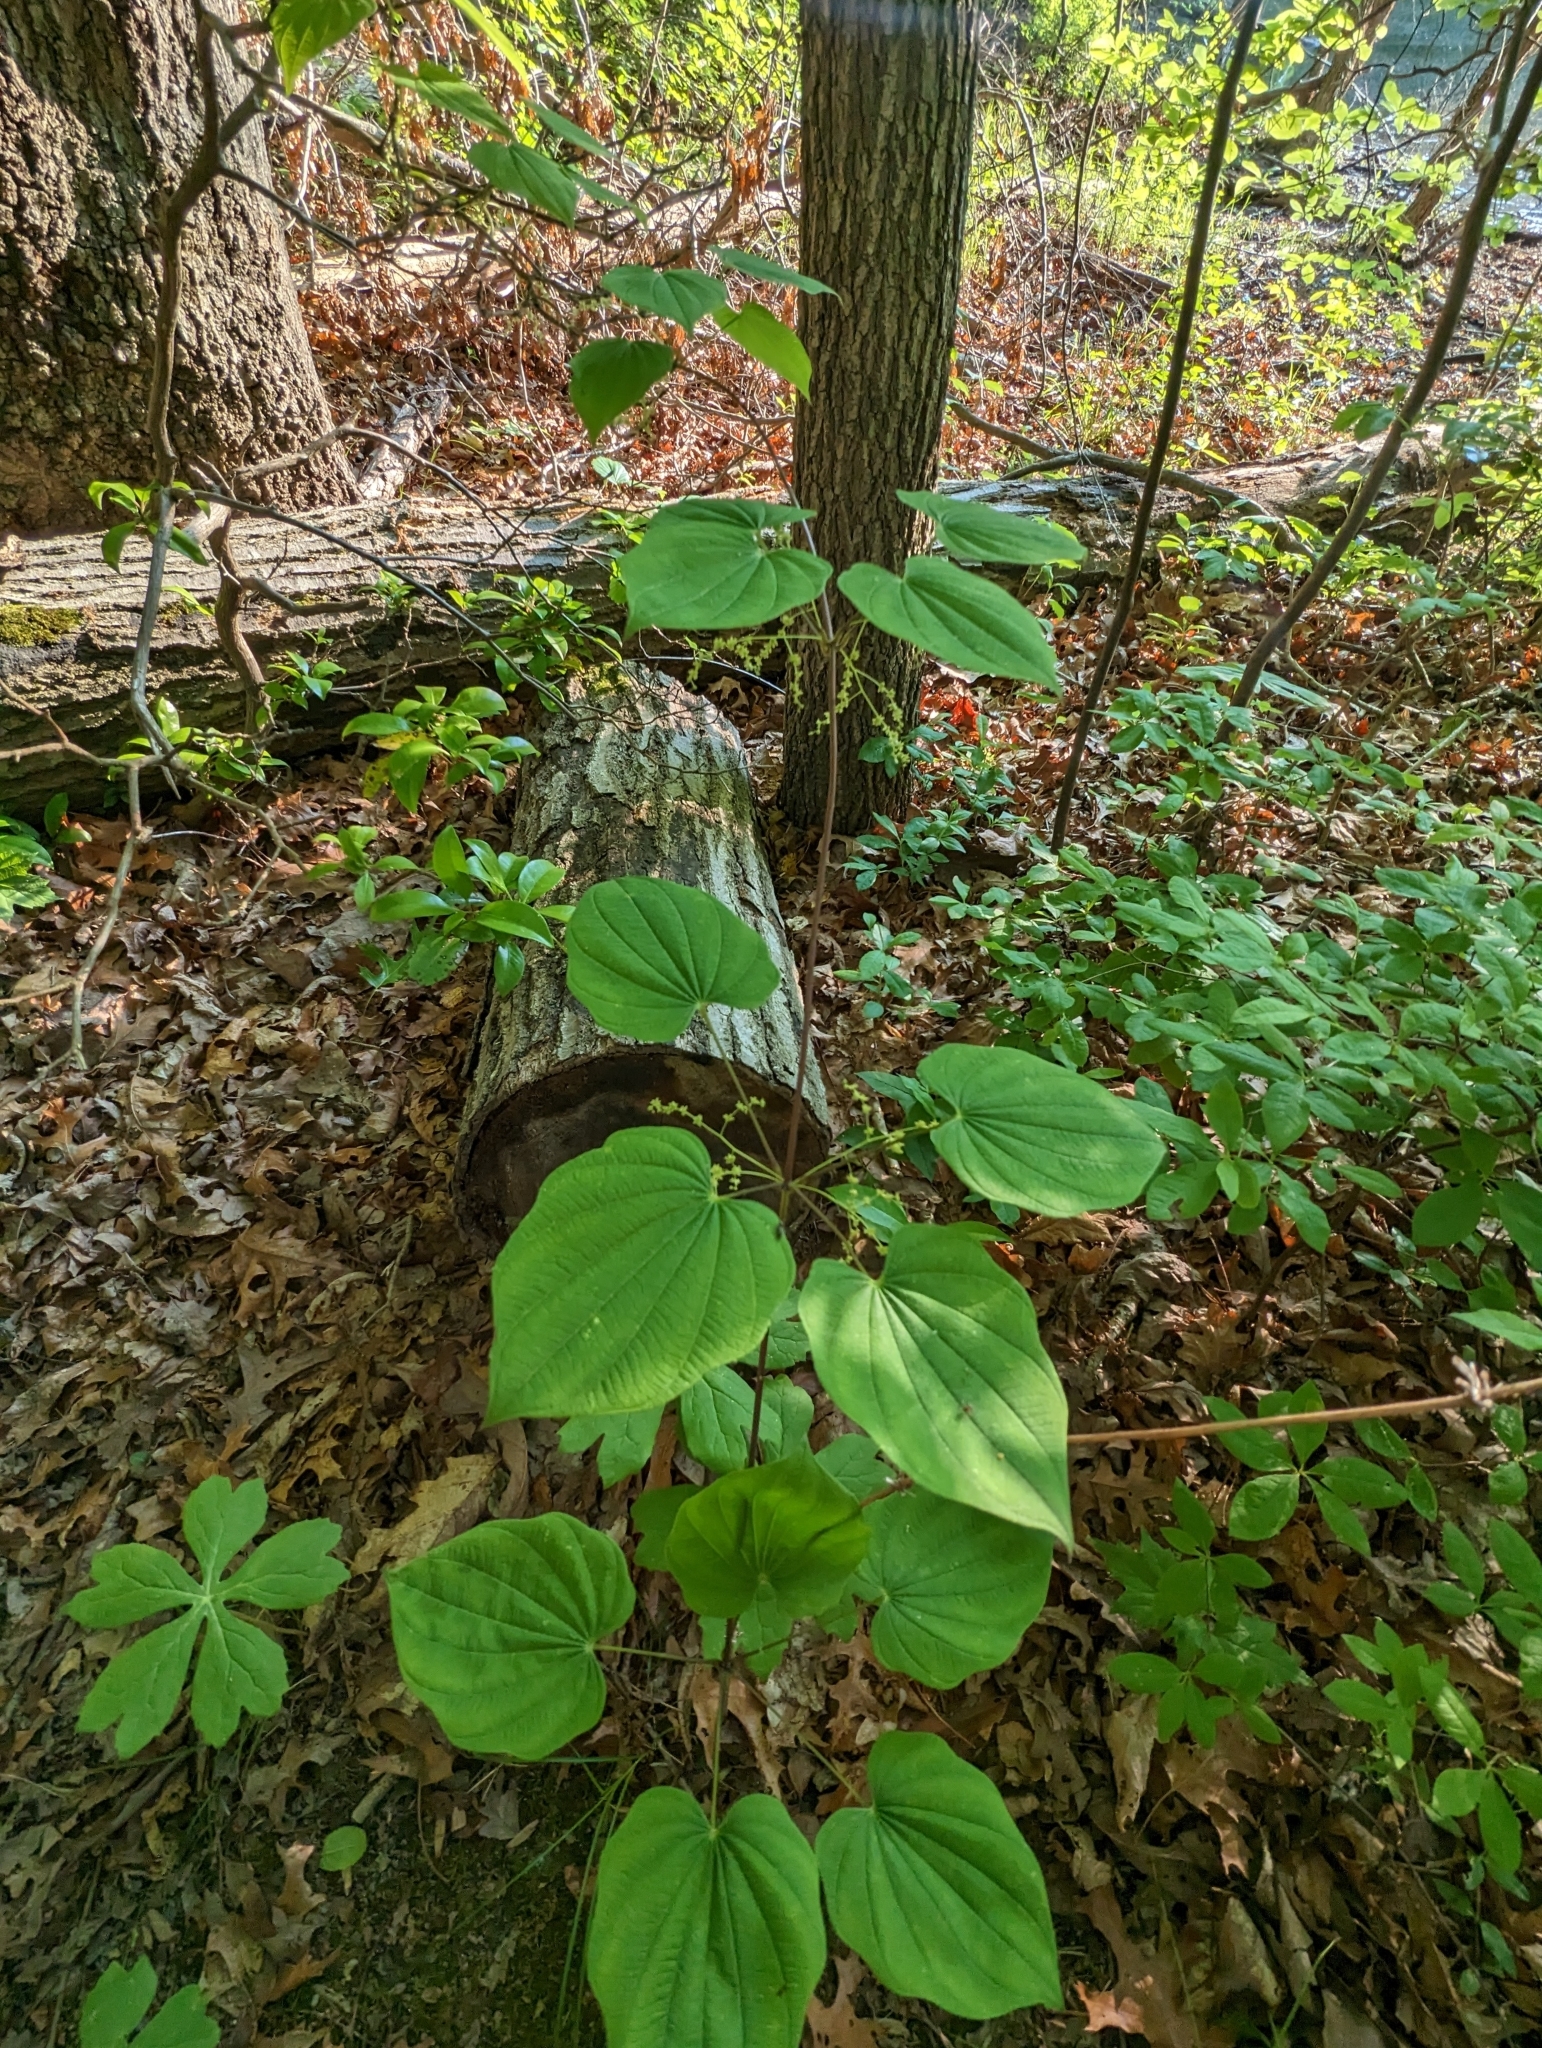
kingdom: Plantae
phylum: Tracheophyta
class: Liliopsida
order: Dioscoreales
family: Dioscoreaceae
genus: Dioscorea
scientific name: Dioscorea villosa
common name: Wild yam
